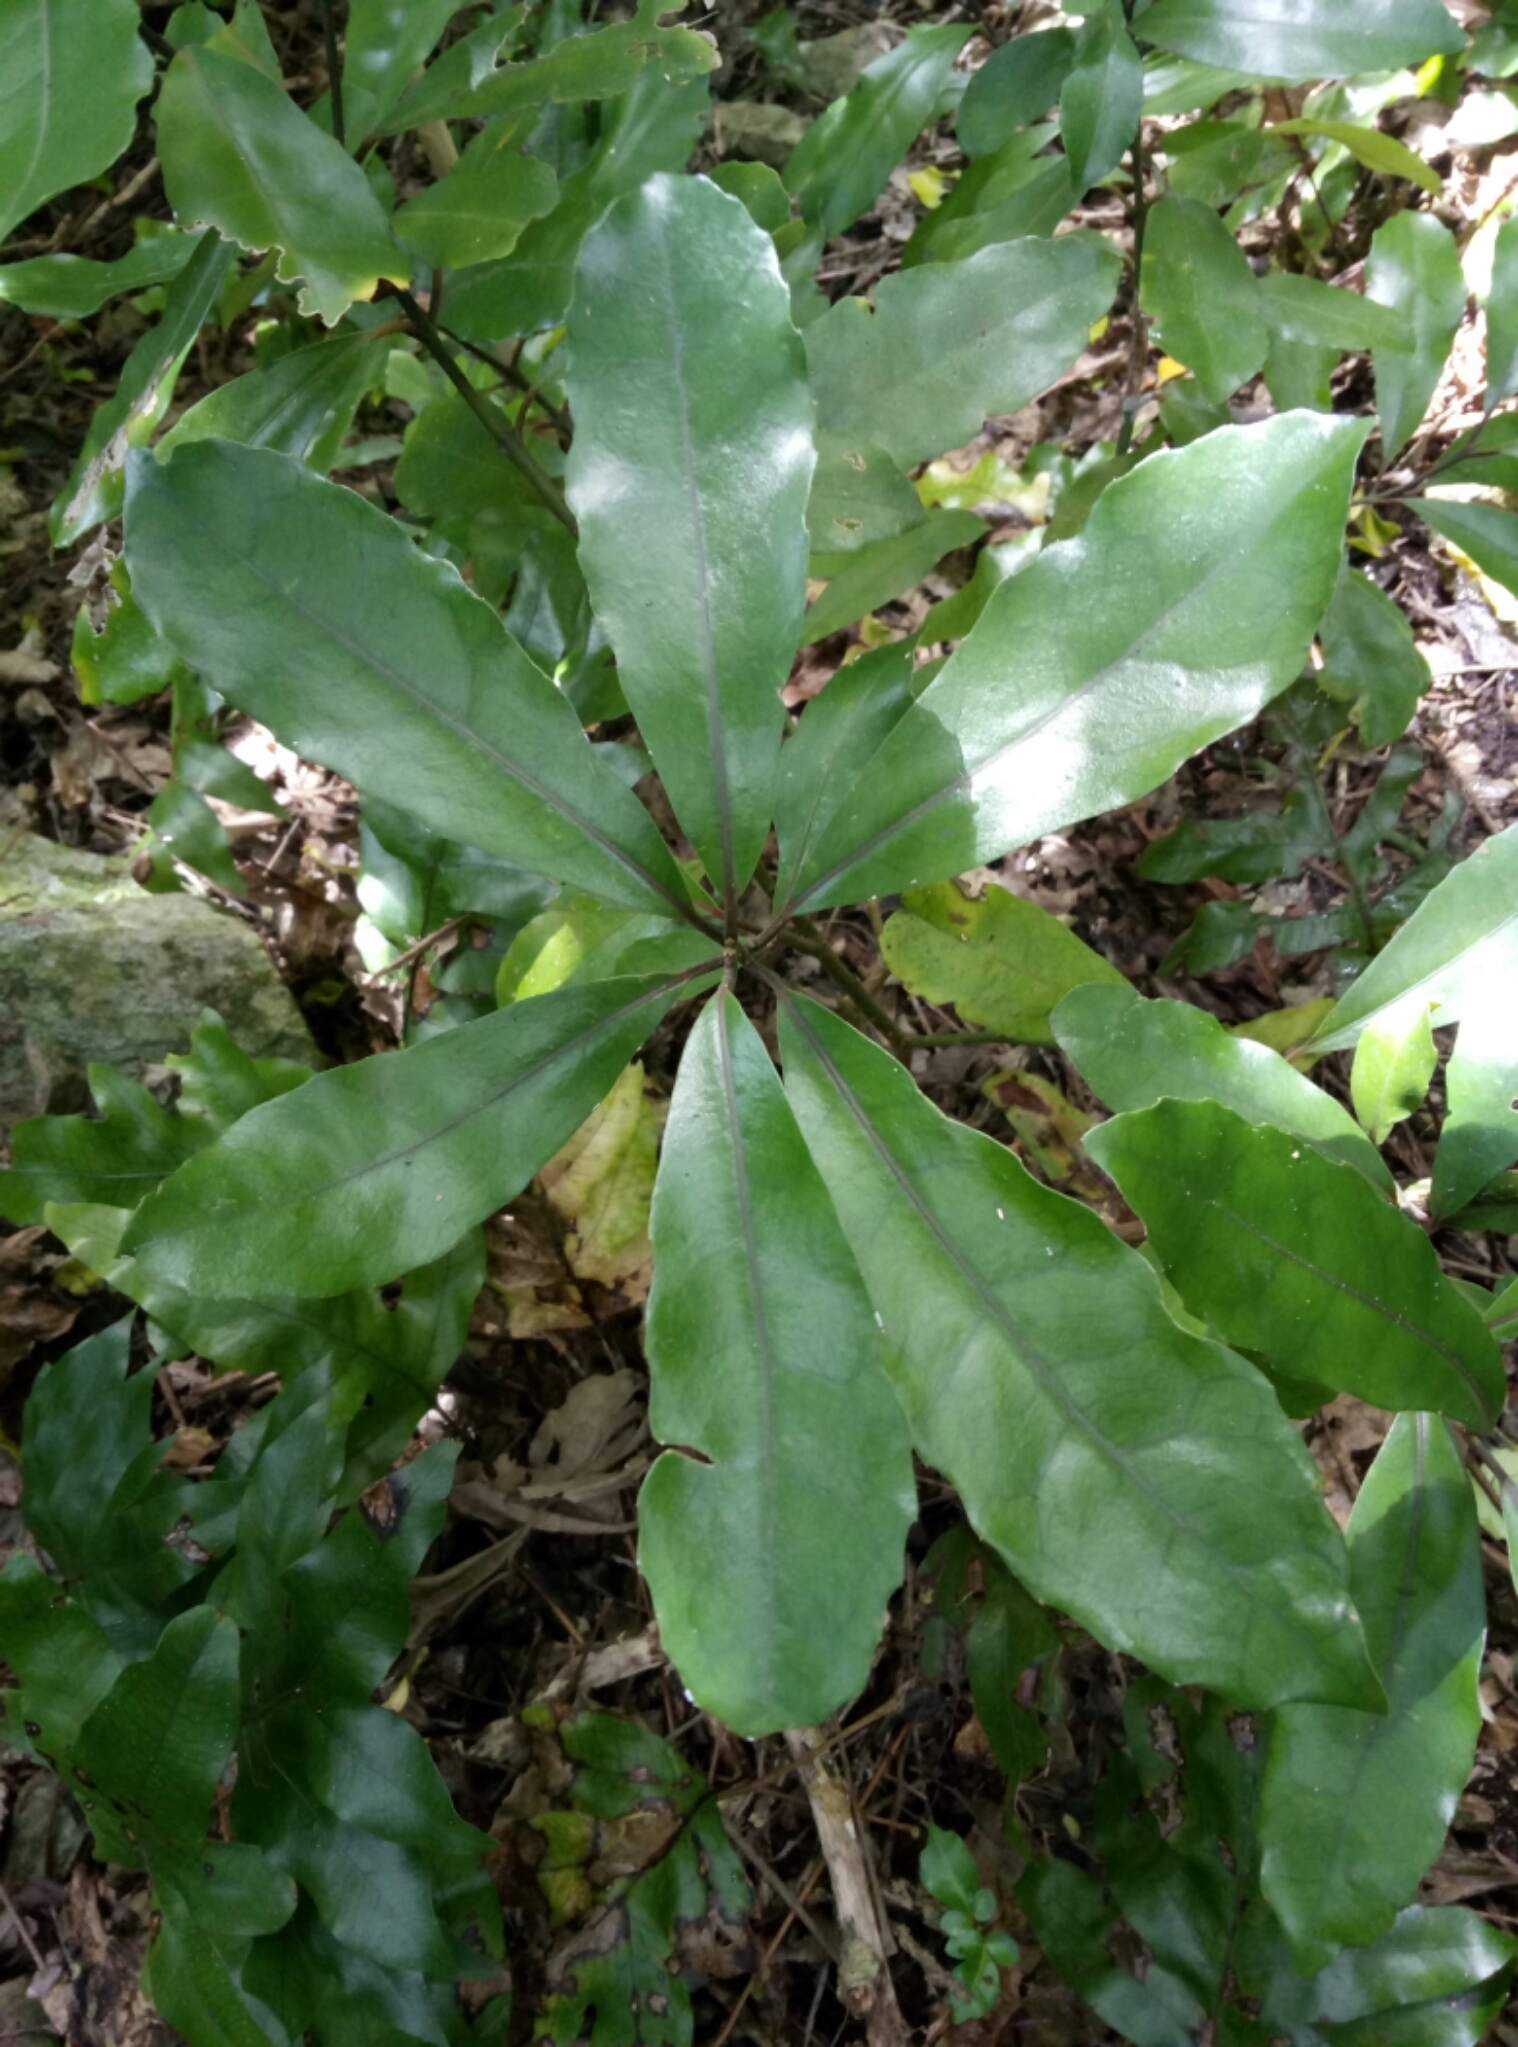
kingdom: Plantae
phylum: Tracheophyta
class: Magnoliopsida
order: Laurales
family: Monimiaceae
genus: Hedycarya
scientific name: Hedycarya arborea
